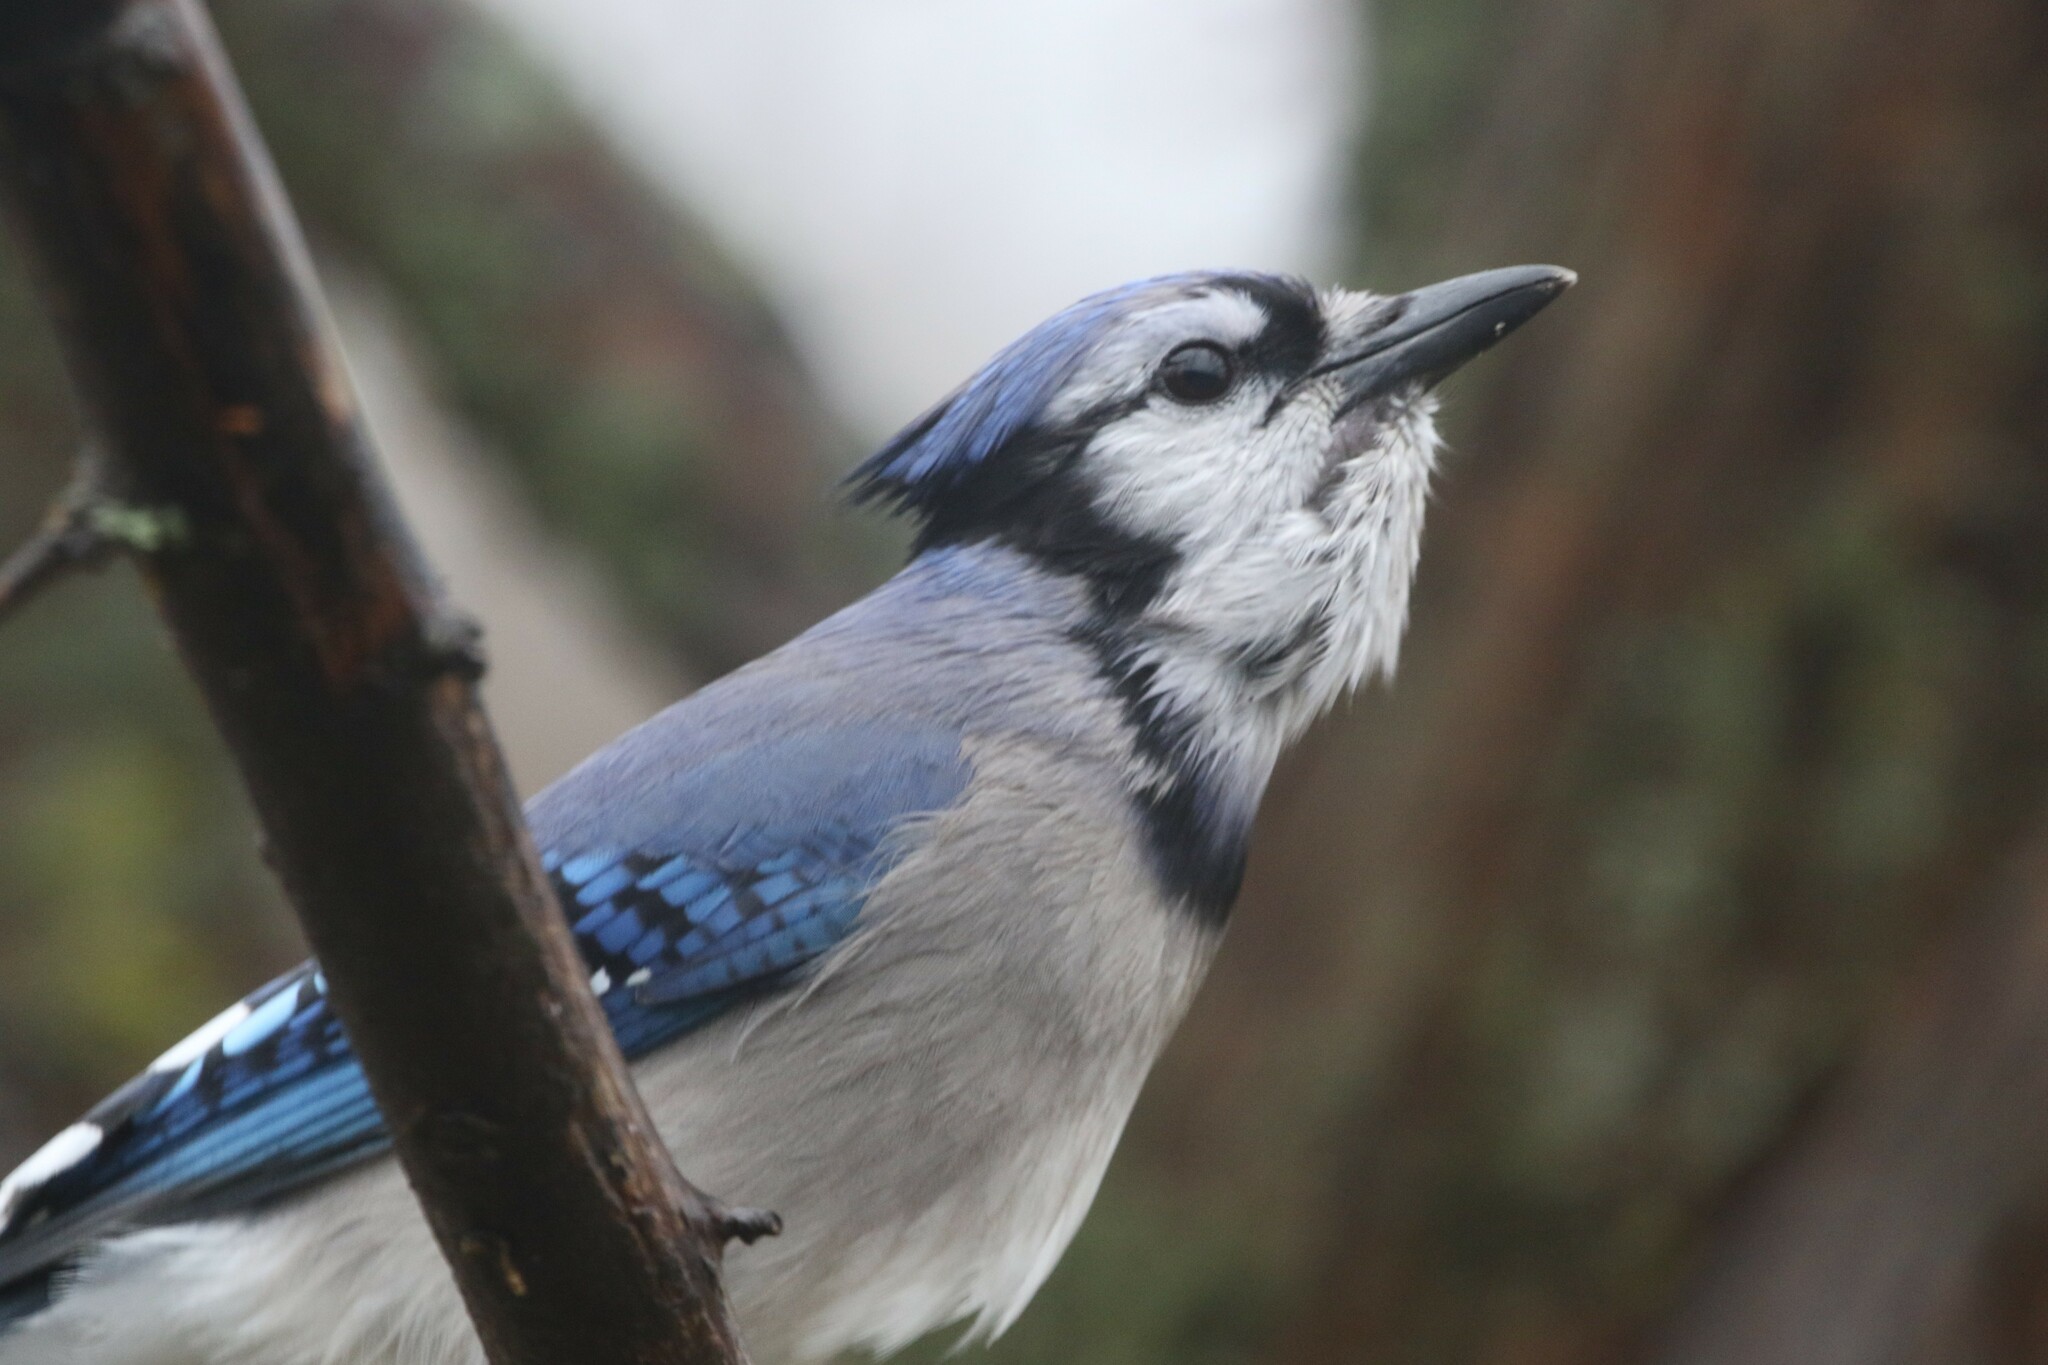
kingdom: Animalia
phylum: Chordata
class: Aves
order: Passeriformes
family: Corvidae
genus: Cyanocitta
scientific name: Cyanocitta cristata
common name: Blue jay
